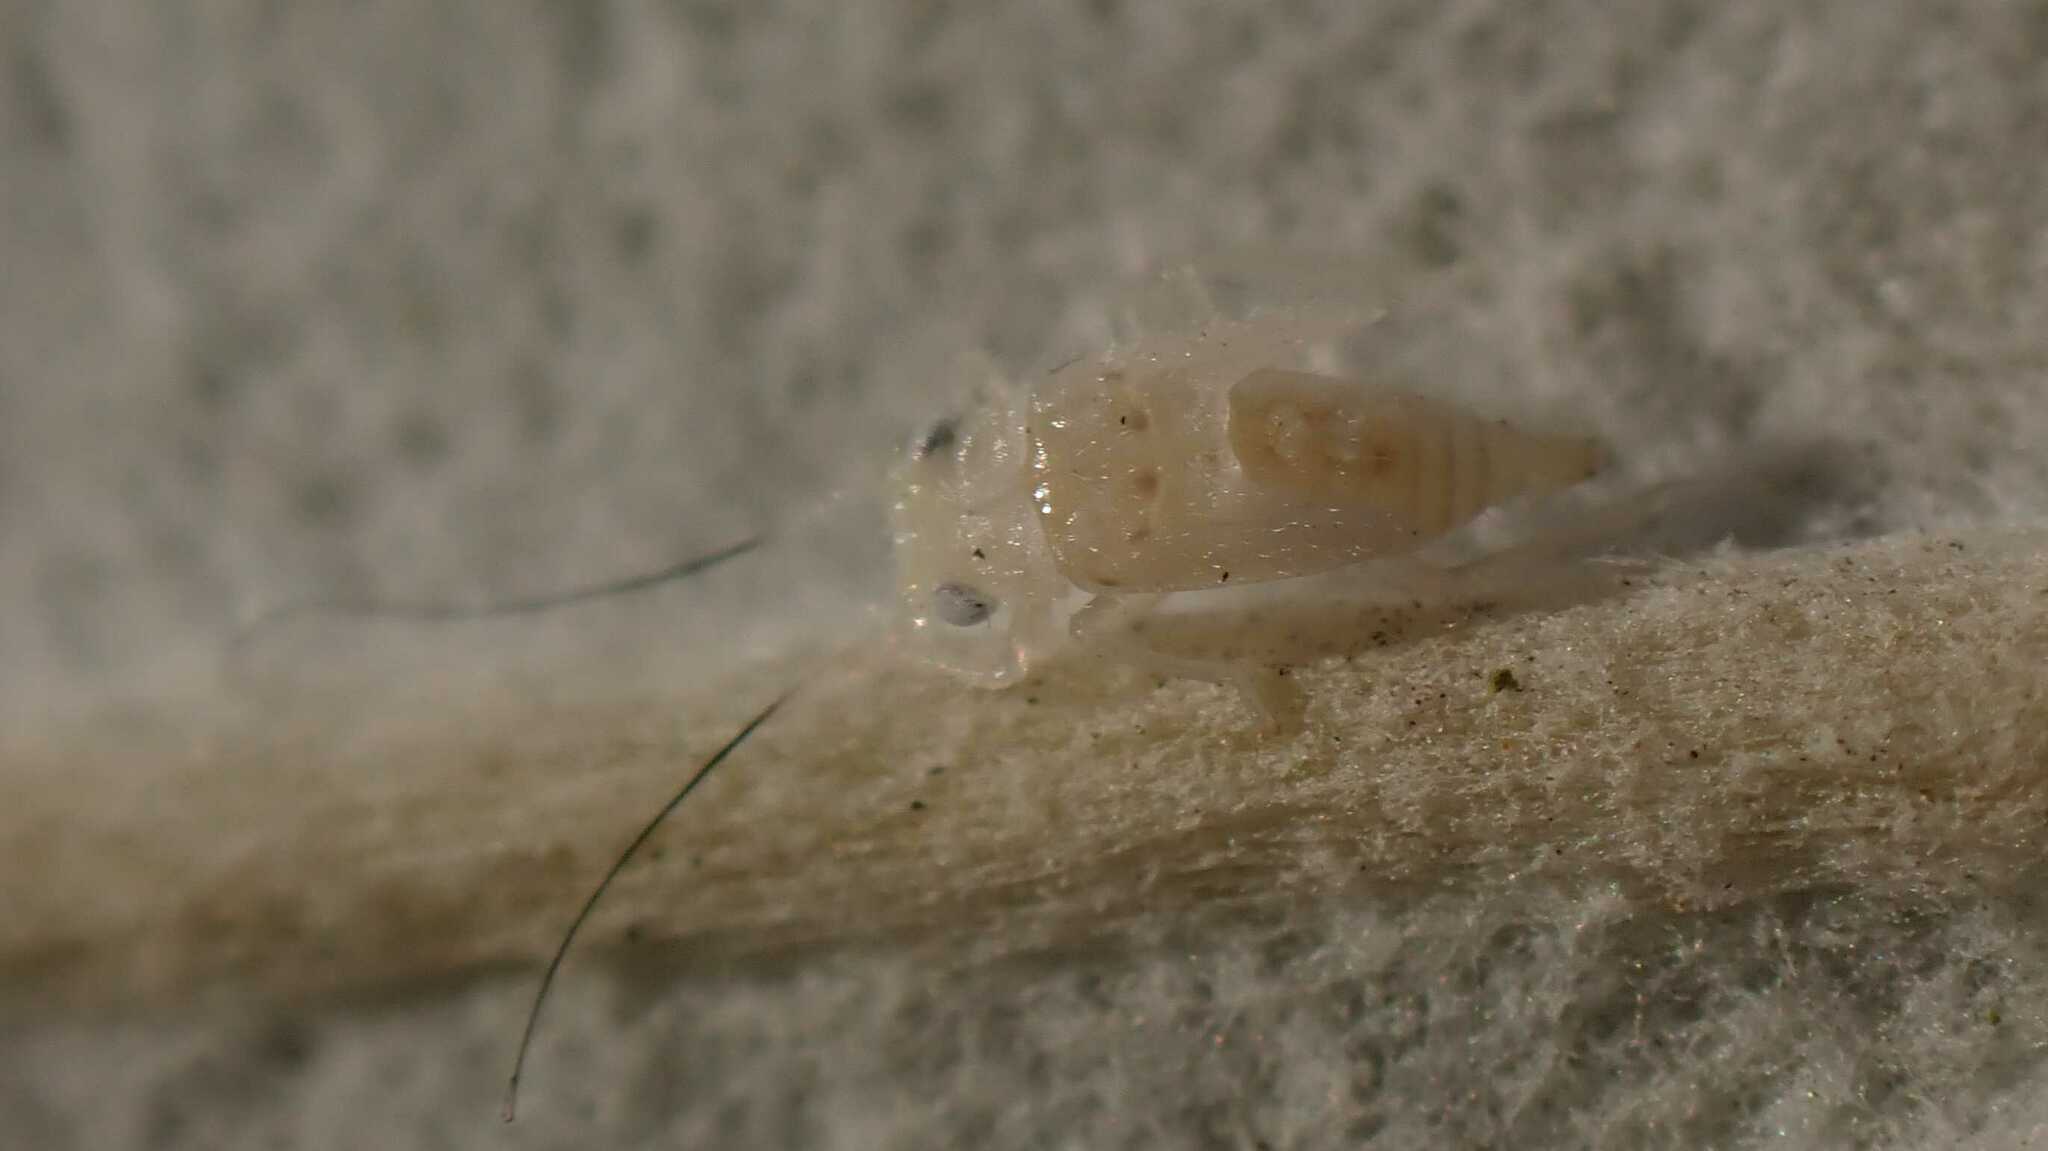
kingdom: Animalia
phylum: Arthropoda
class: Insecta
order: Hemiptera
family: Cicadellidae
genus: Zygina
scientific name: Zygina nivea
